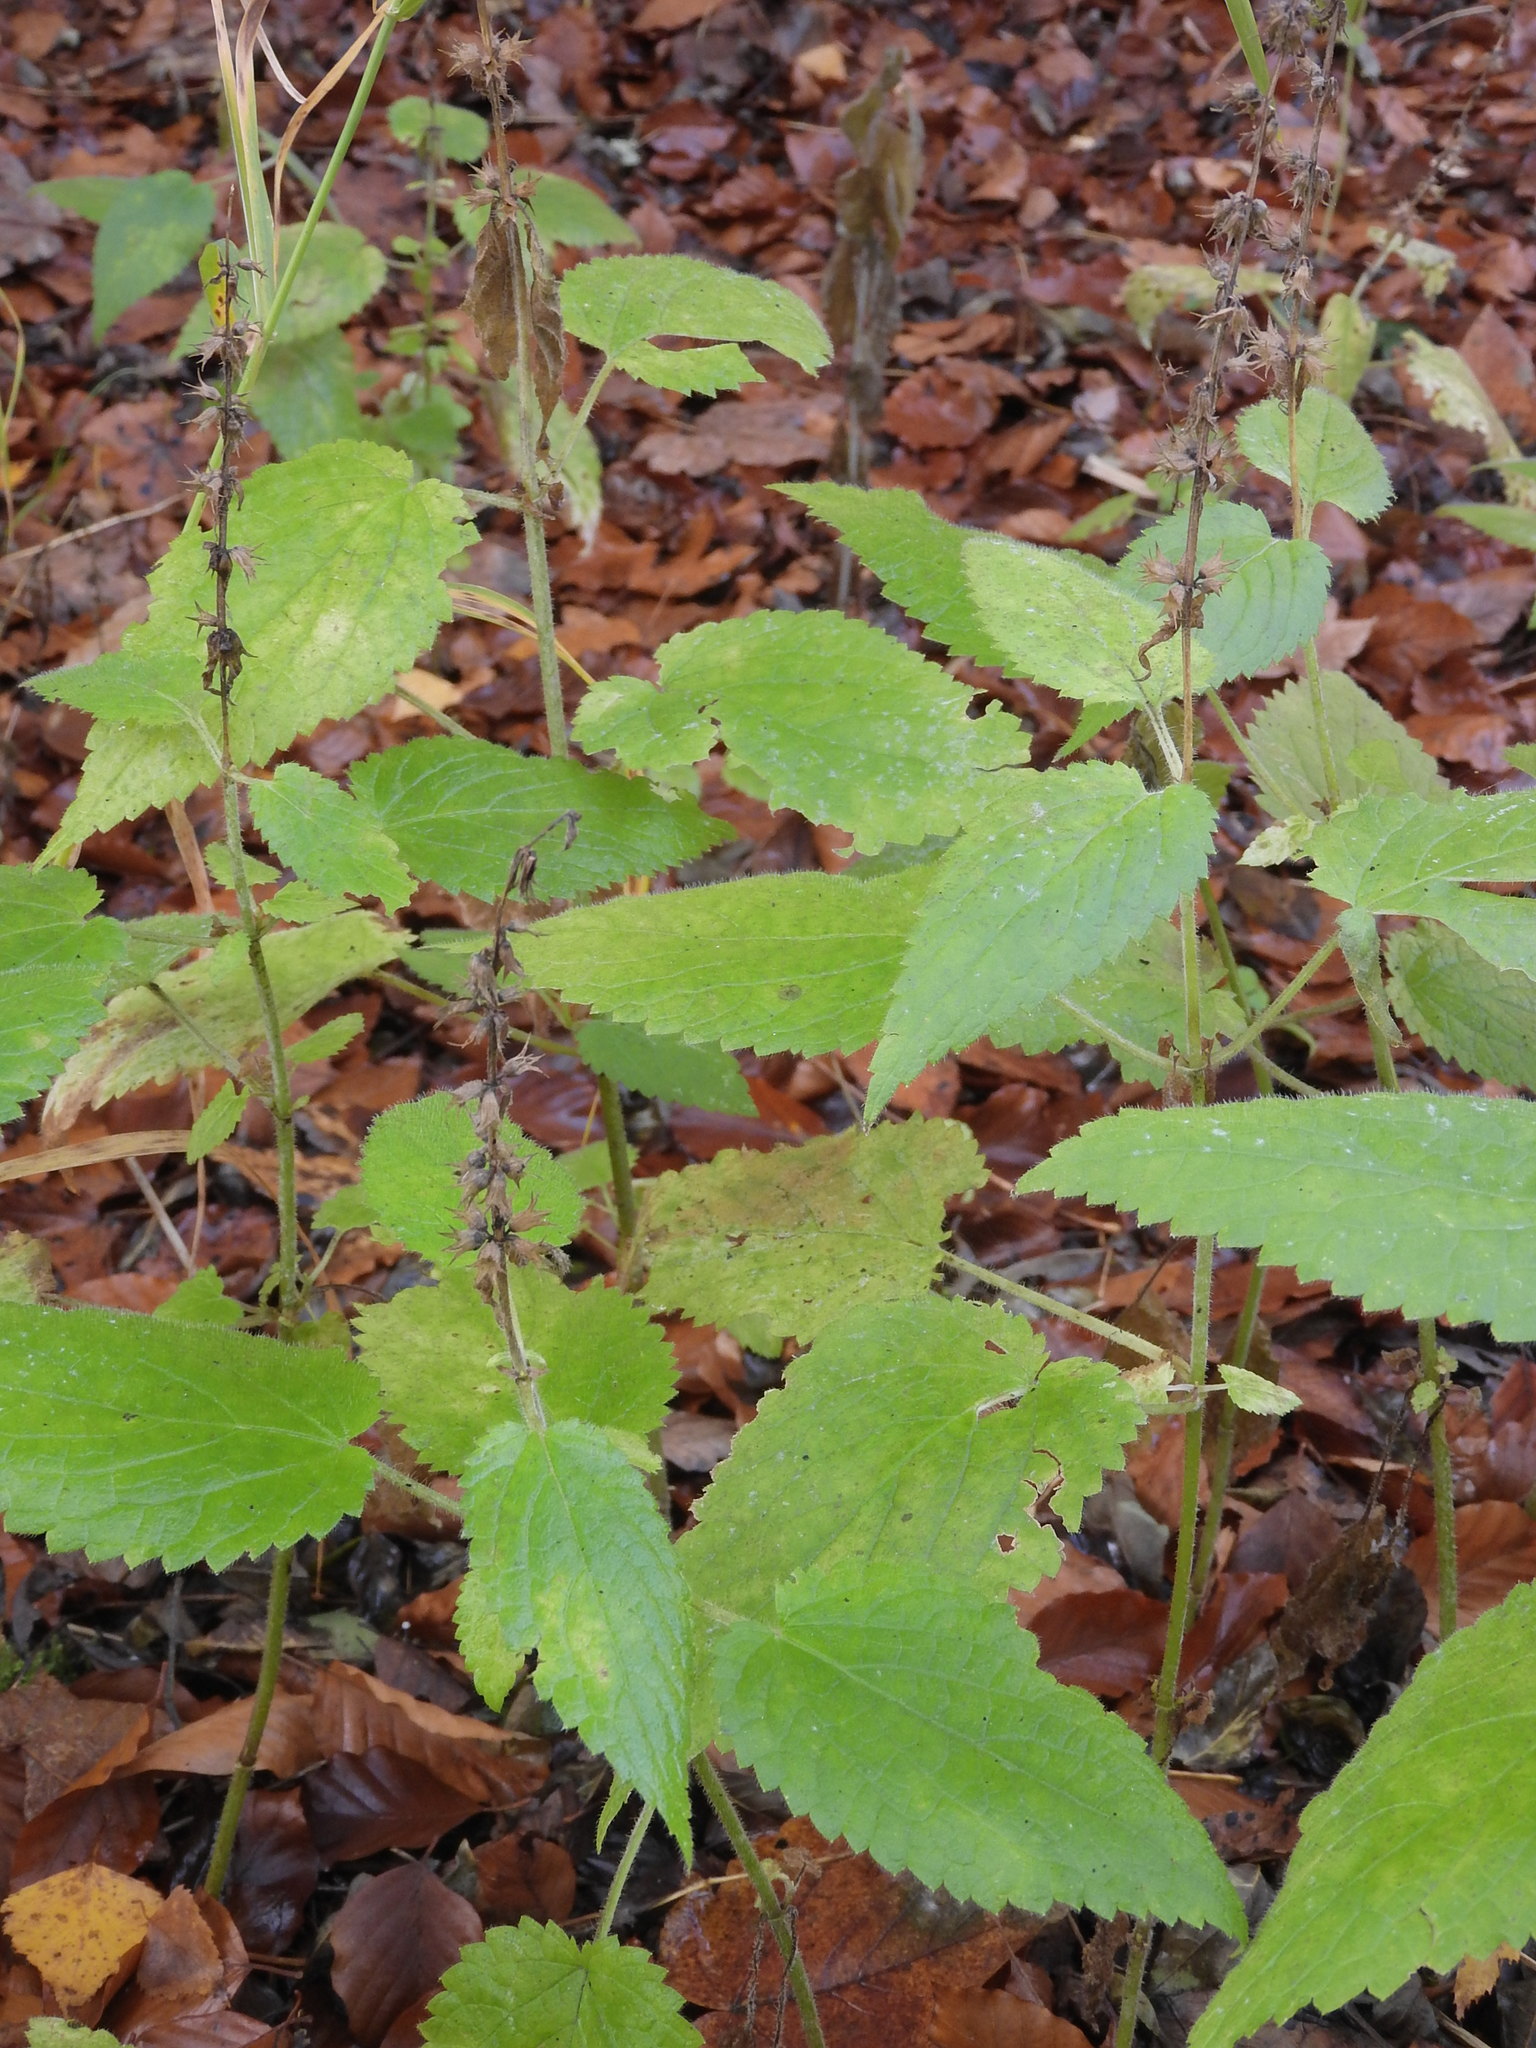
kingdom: Plantae
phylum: Tracheophyta
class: Magnoliopsida
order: Lamiales
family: Lamiaceae
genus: Stachys
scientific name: Stachys sylvatica
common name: Hedge woundwort
